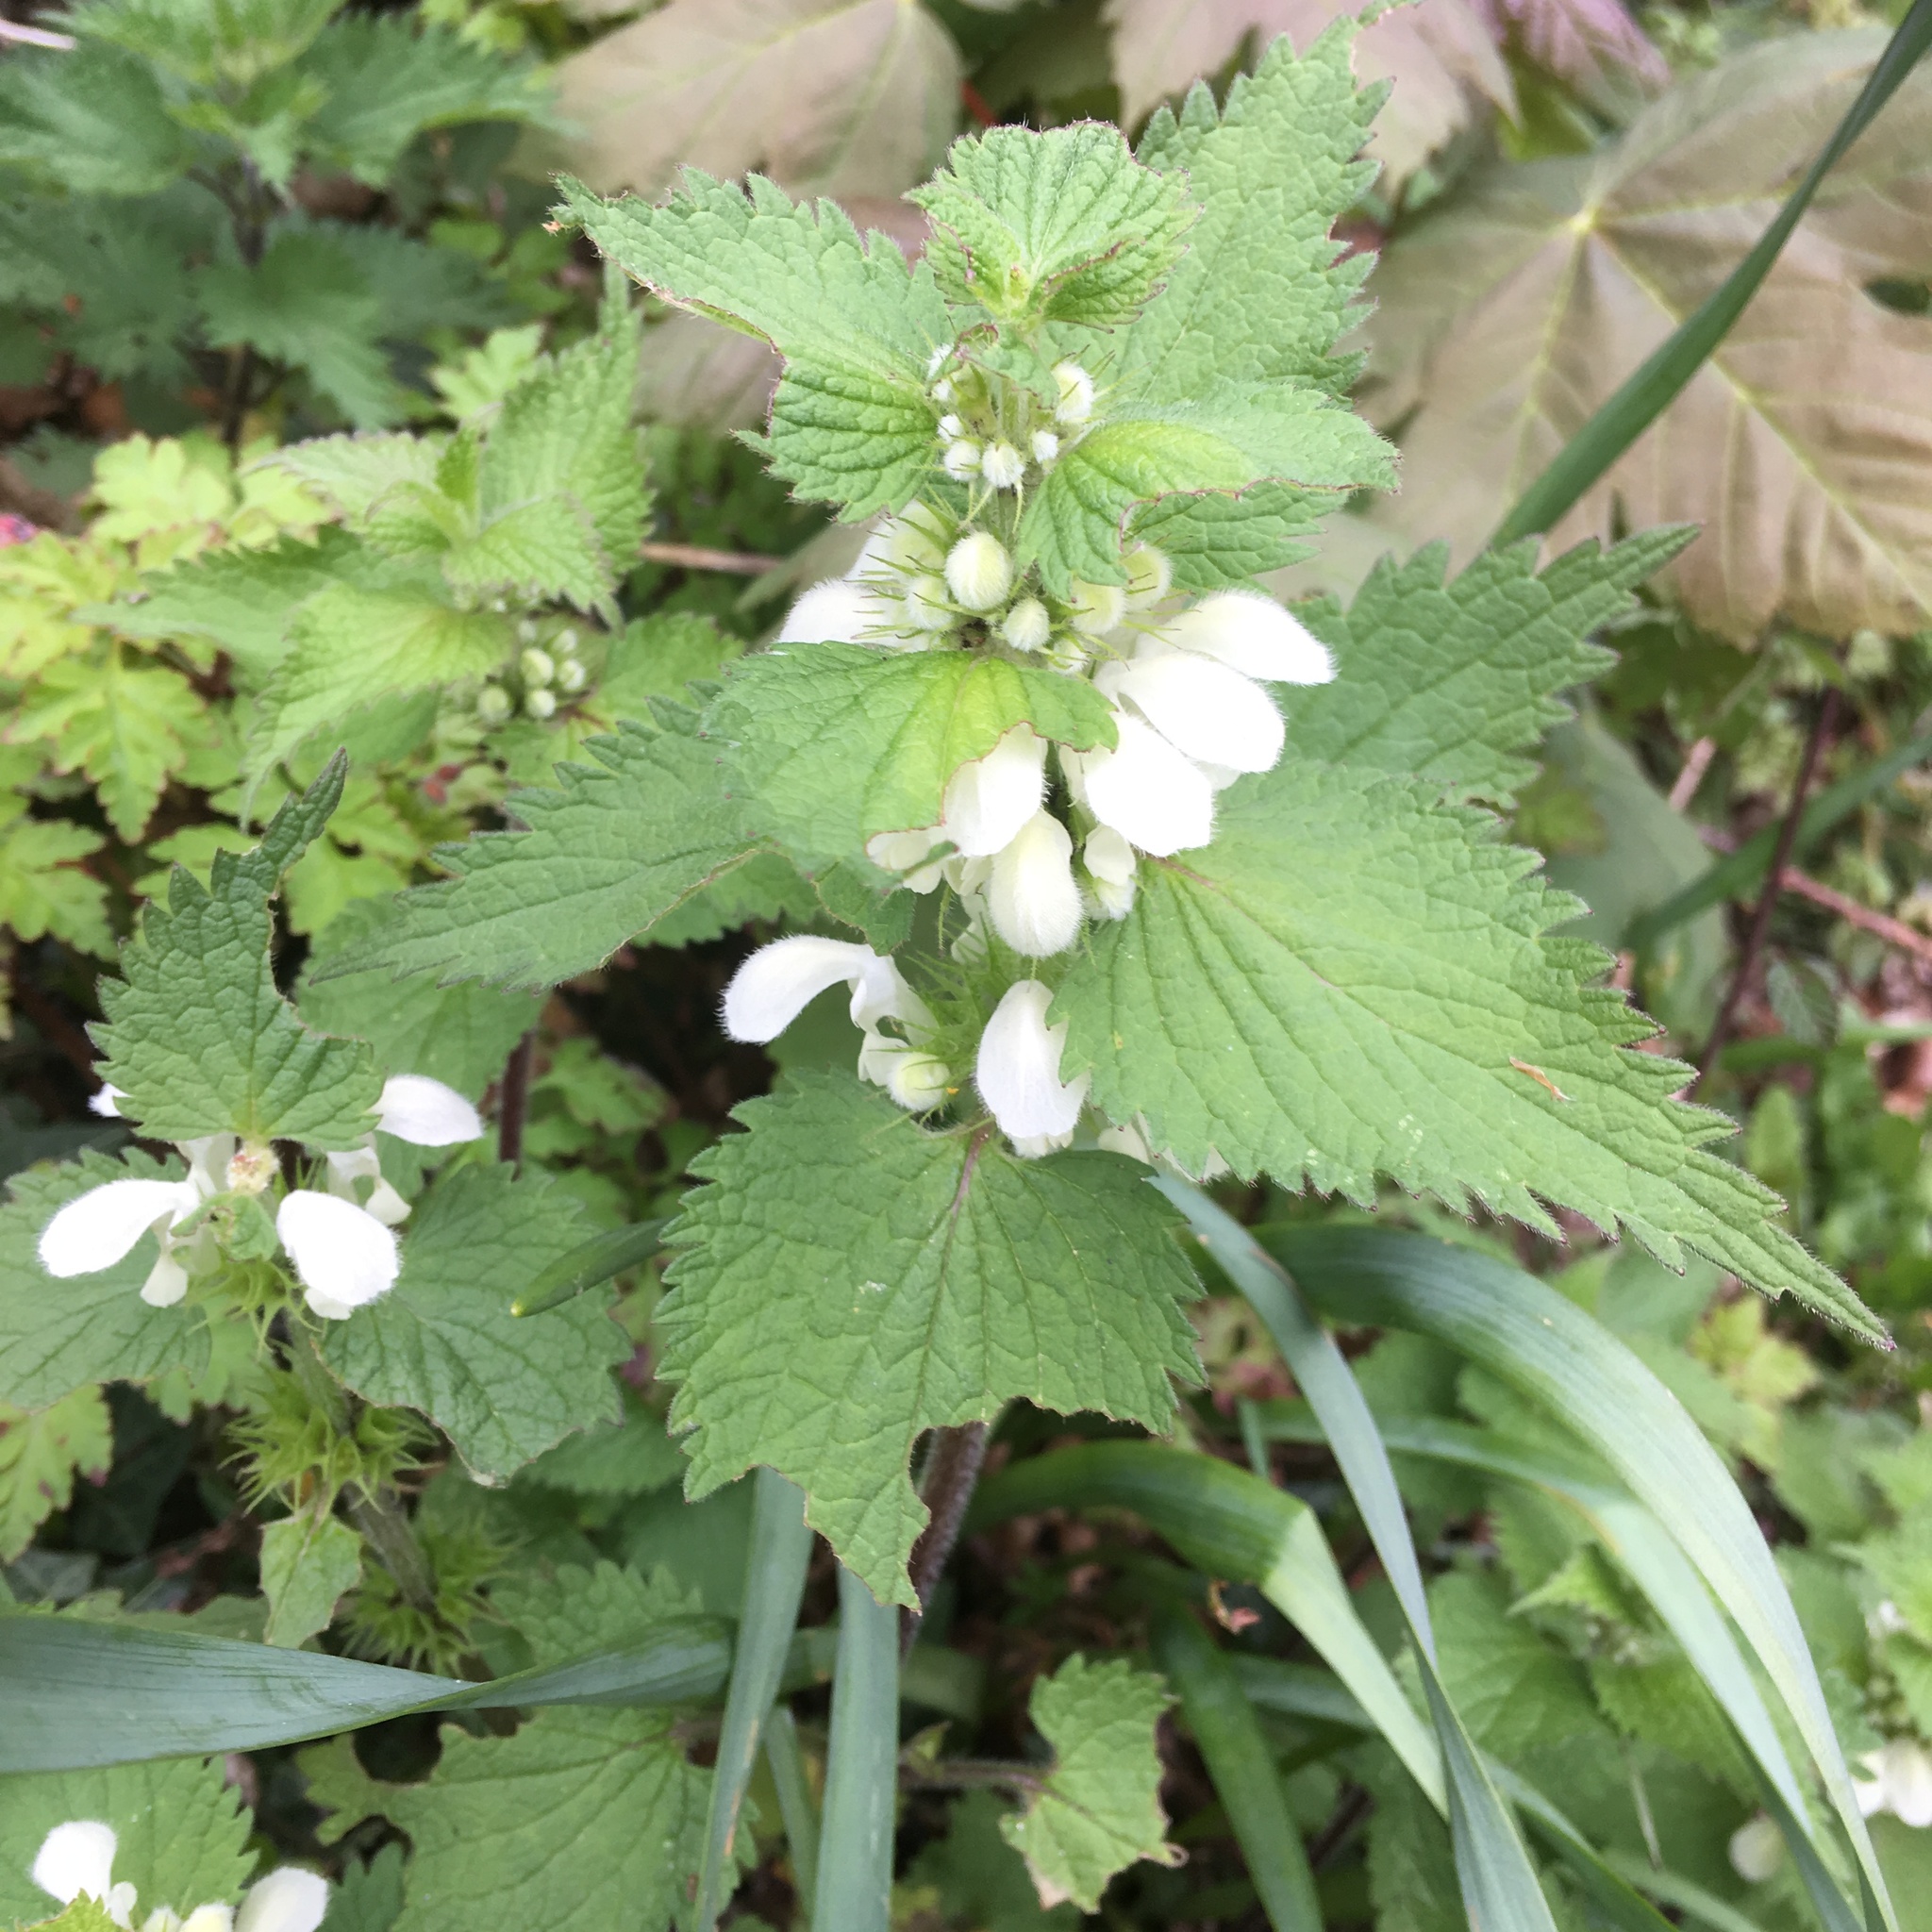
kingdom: Plantae
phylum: Tracheophyta
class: Magnoliopsida
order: Lamiales
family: Lamiaceae
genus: Lamium
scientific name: Lamium album
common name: White dead-nettle
